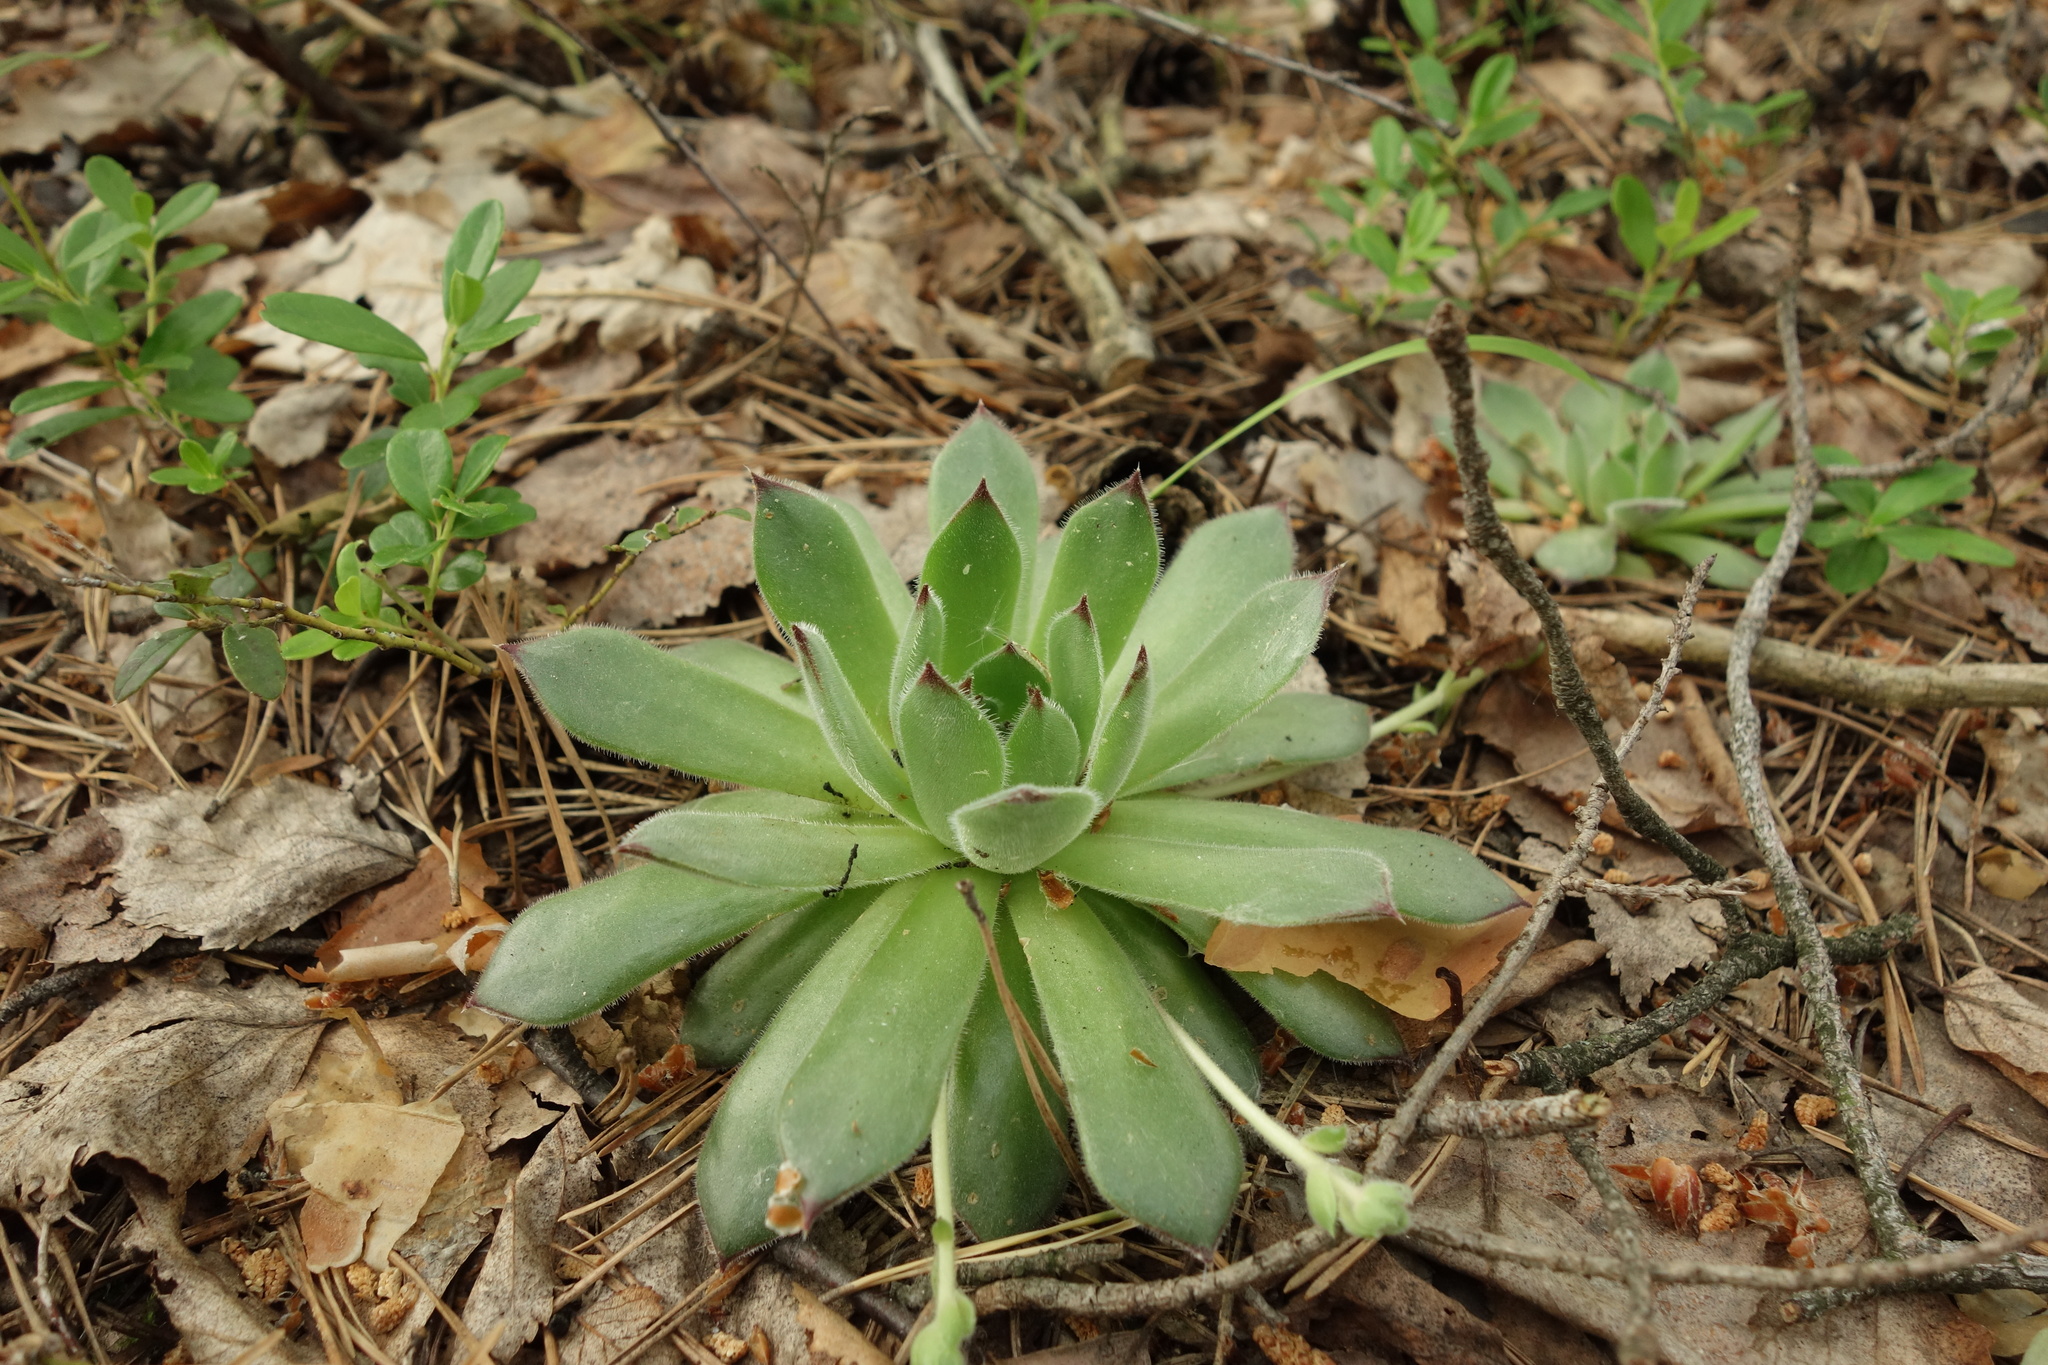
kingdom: Plantae
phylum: Tracheophyta
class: Magnoliopsida
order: Saxifragales
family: Crassulaceae
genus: Sempervivum
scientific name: Sempervivum ruthenicum
